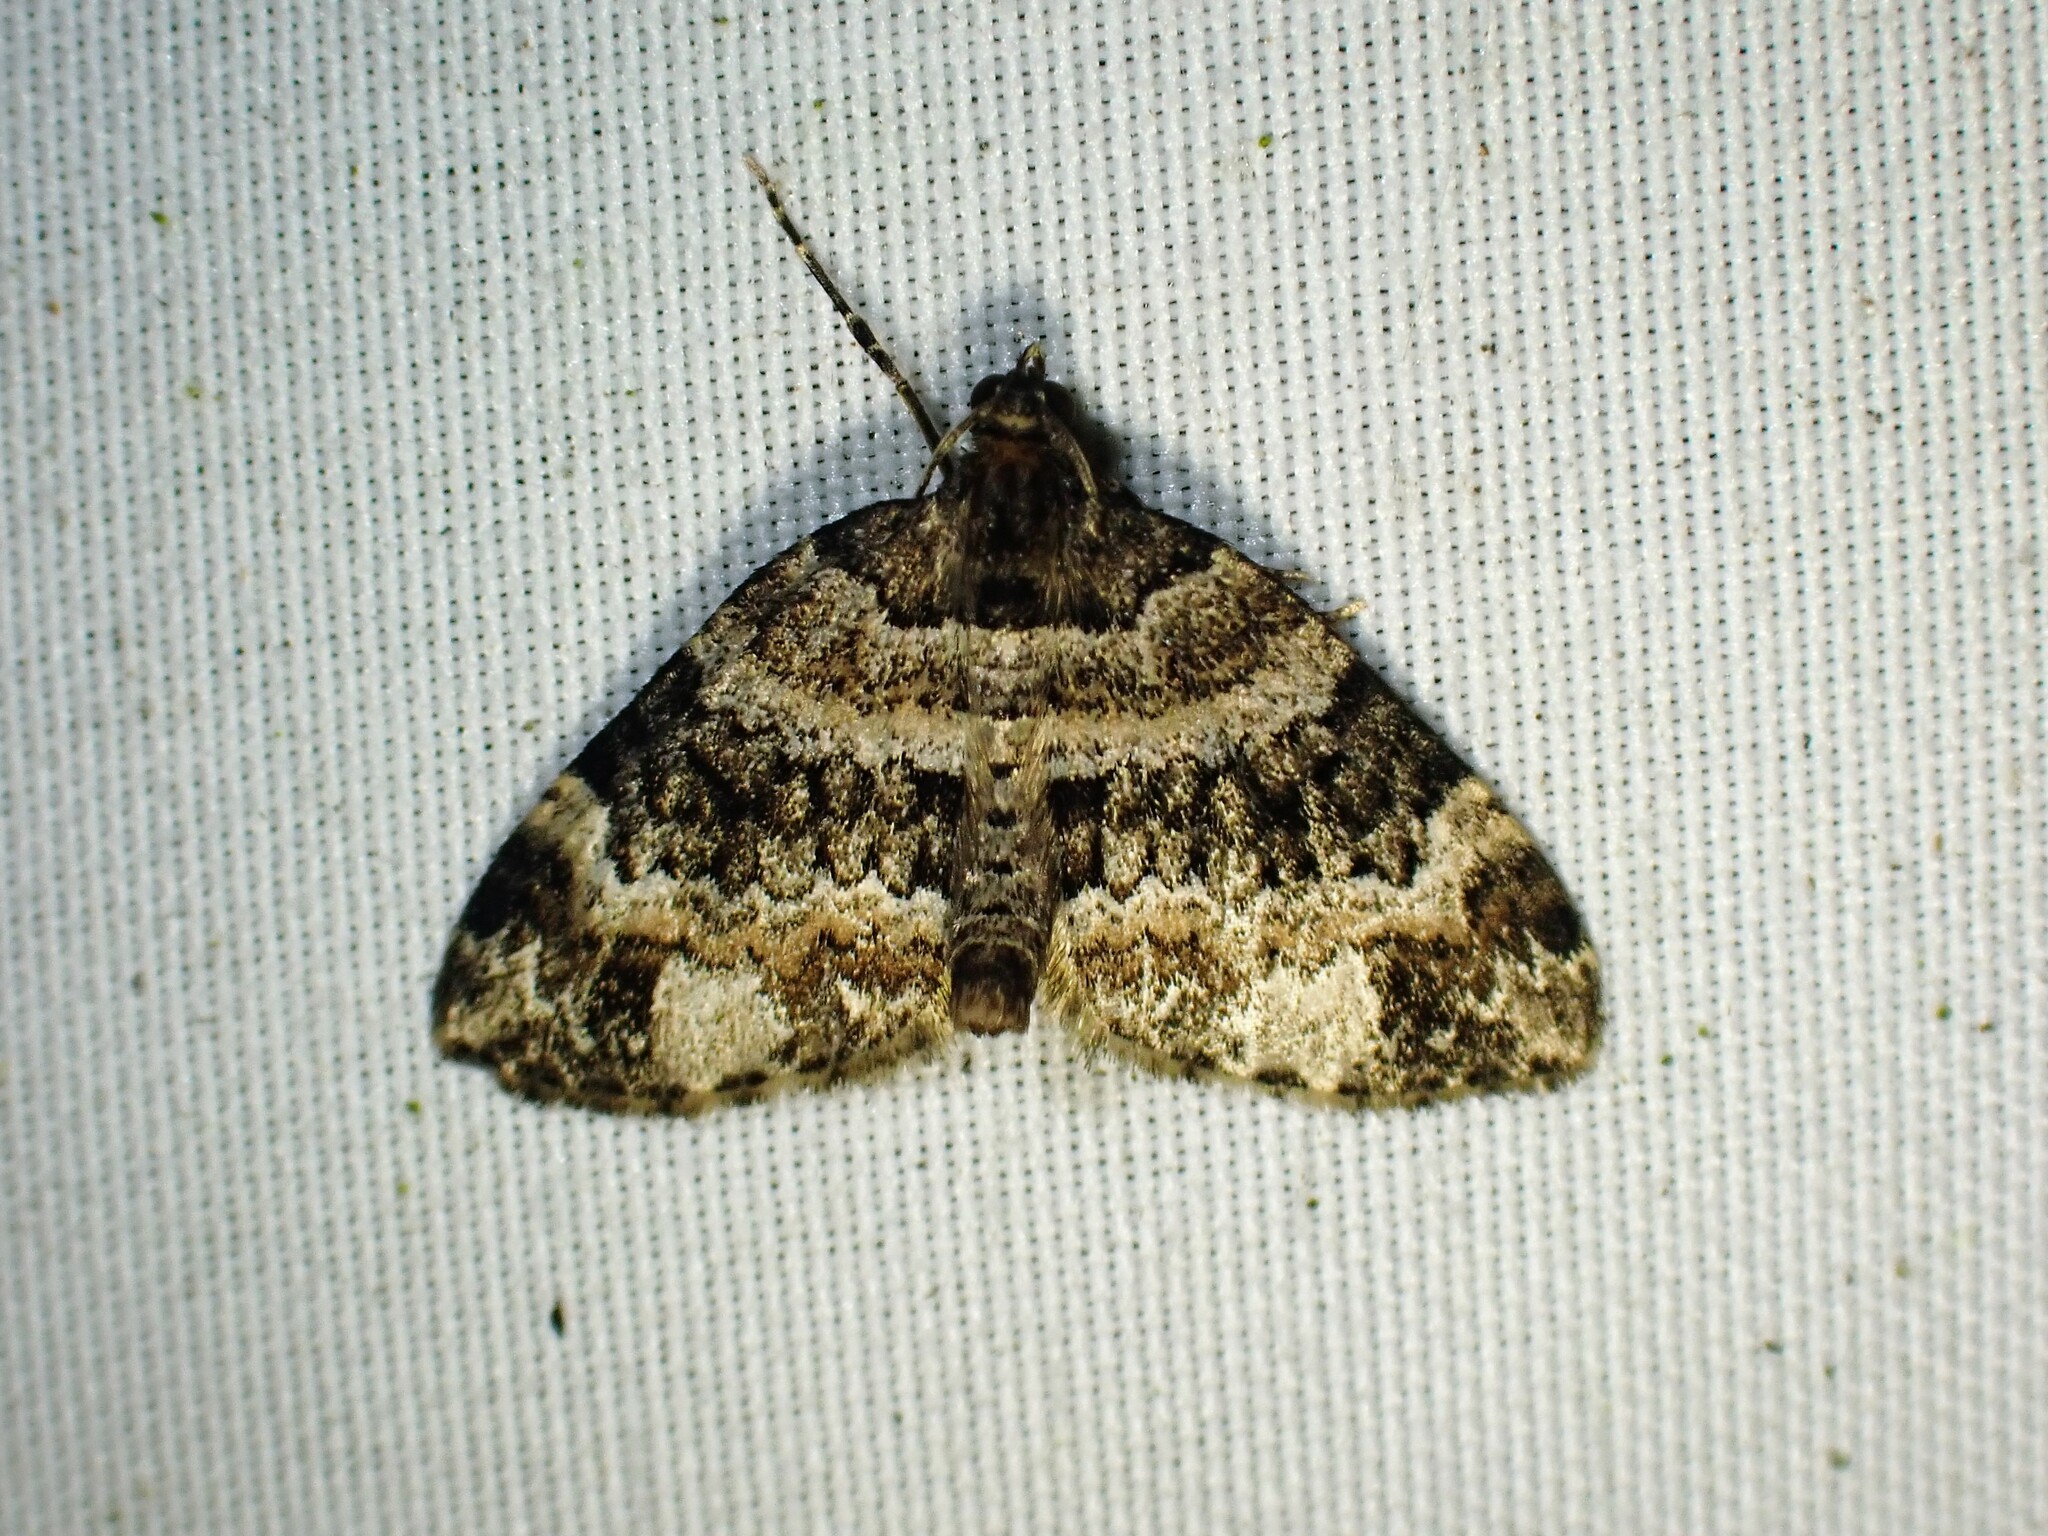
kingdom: Animalia
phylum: Arthropoda
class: Insecta
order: Lepidoptera
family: Geometridae
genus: Martania
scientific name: Martania
